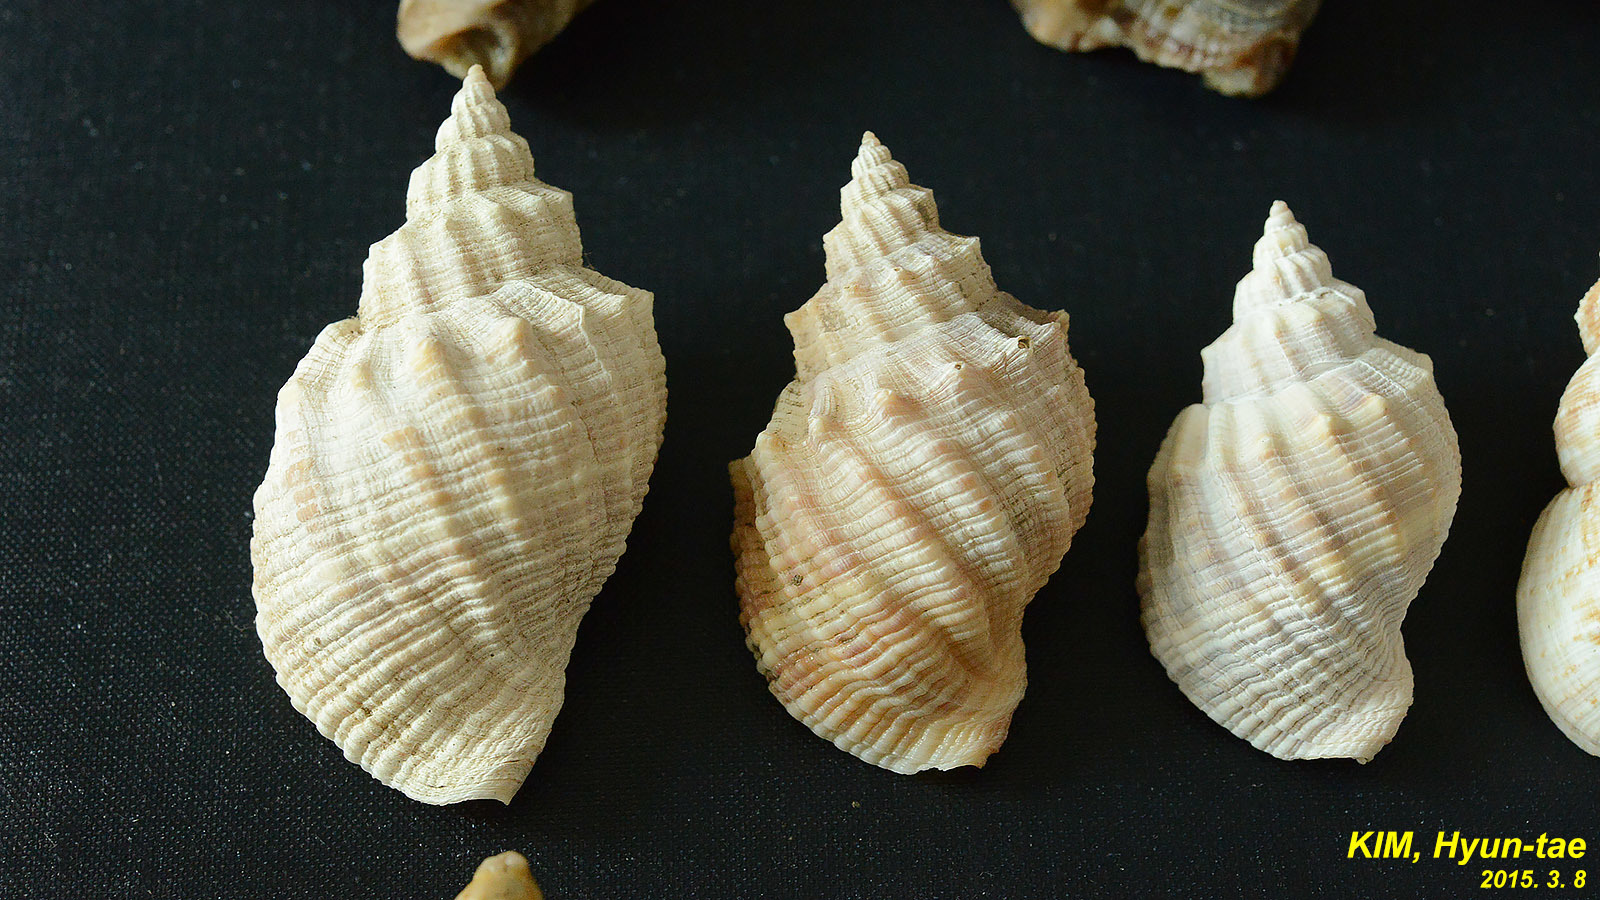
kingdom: Animalia
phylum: Mollusca
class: Gastropoda
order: Neogastropoda
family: Cancellariidae
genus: Sydaphera
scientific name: Sydaphera spengleriana
